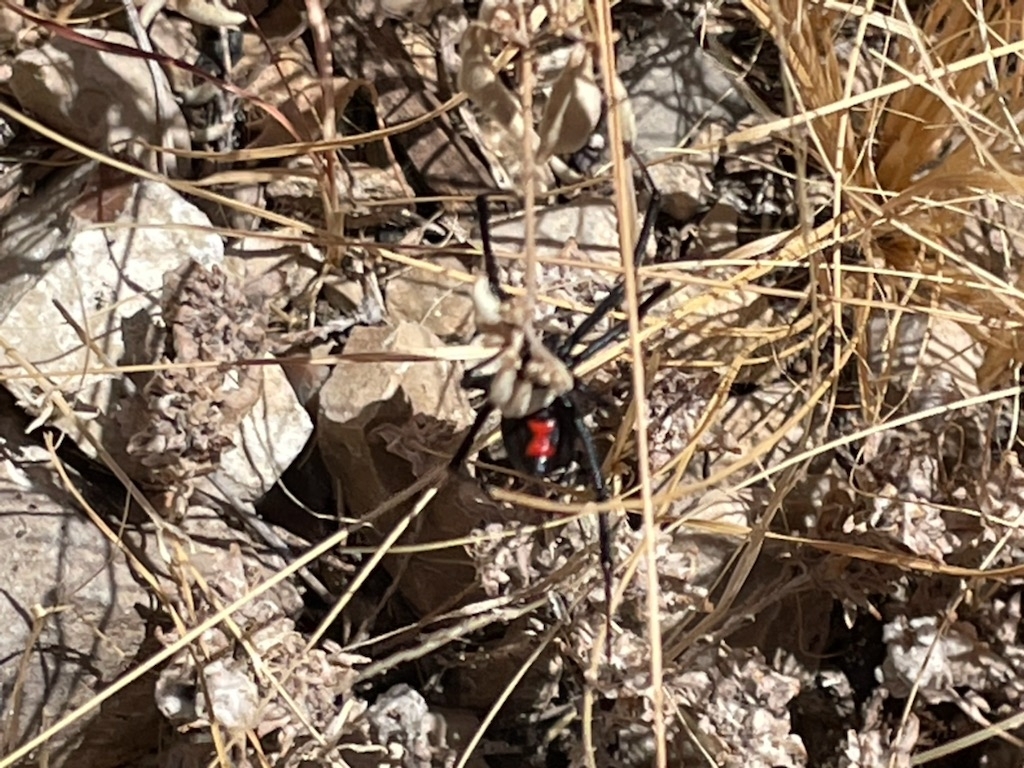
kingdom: Animalia
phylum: Arthropoda
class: Arachnida
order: Araneae
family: Theridiidae
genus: Latrodectus
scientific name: Latrodectus hesperus
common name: Western black widow
